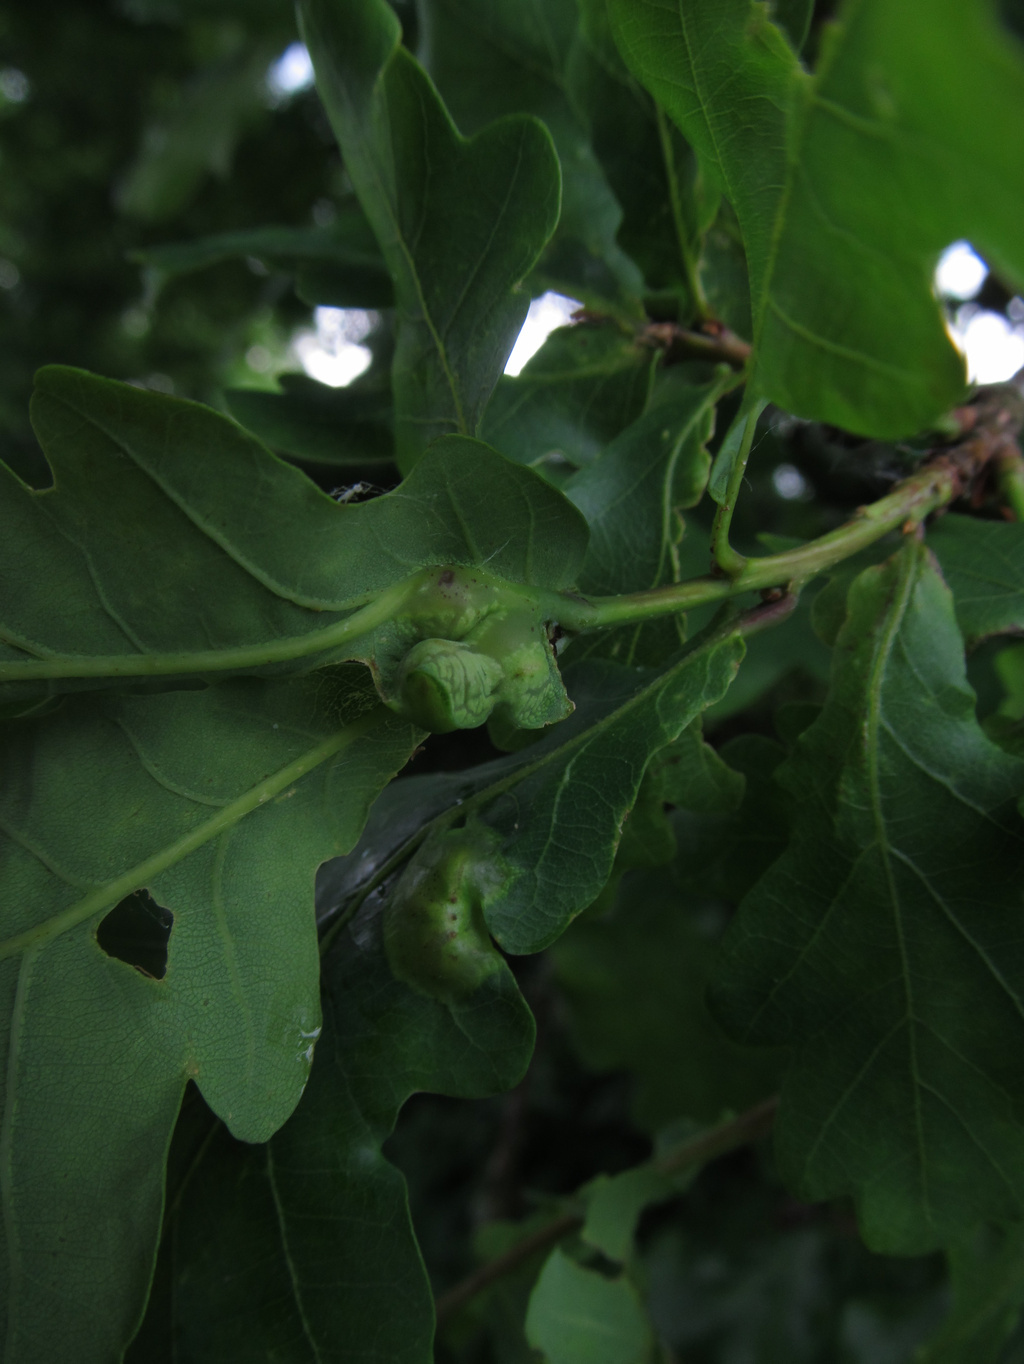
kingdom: Animalia
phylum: Arthropoda
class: Insecta
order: Hymenoptera
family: Cynipidae
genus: Andricus
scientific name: Andricus curvator
